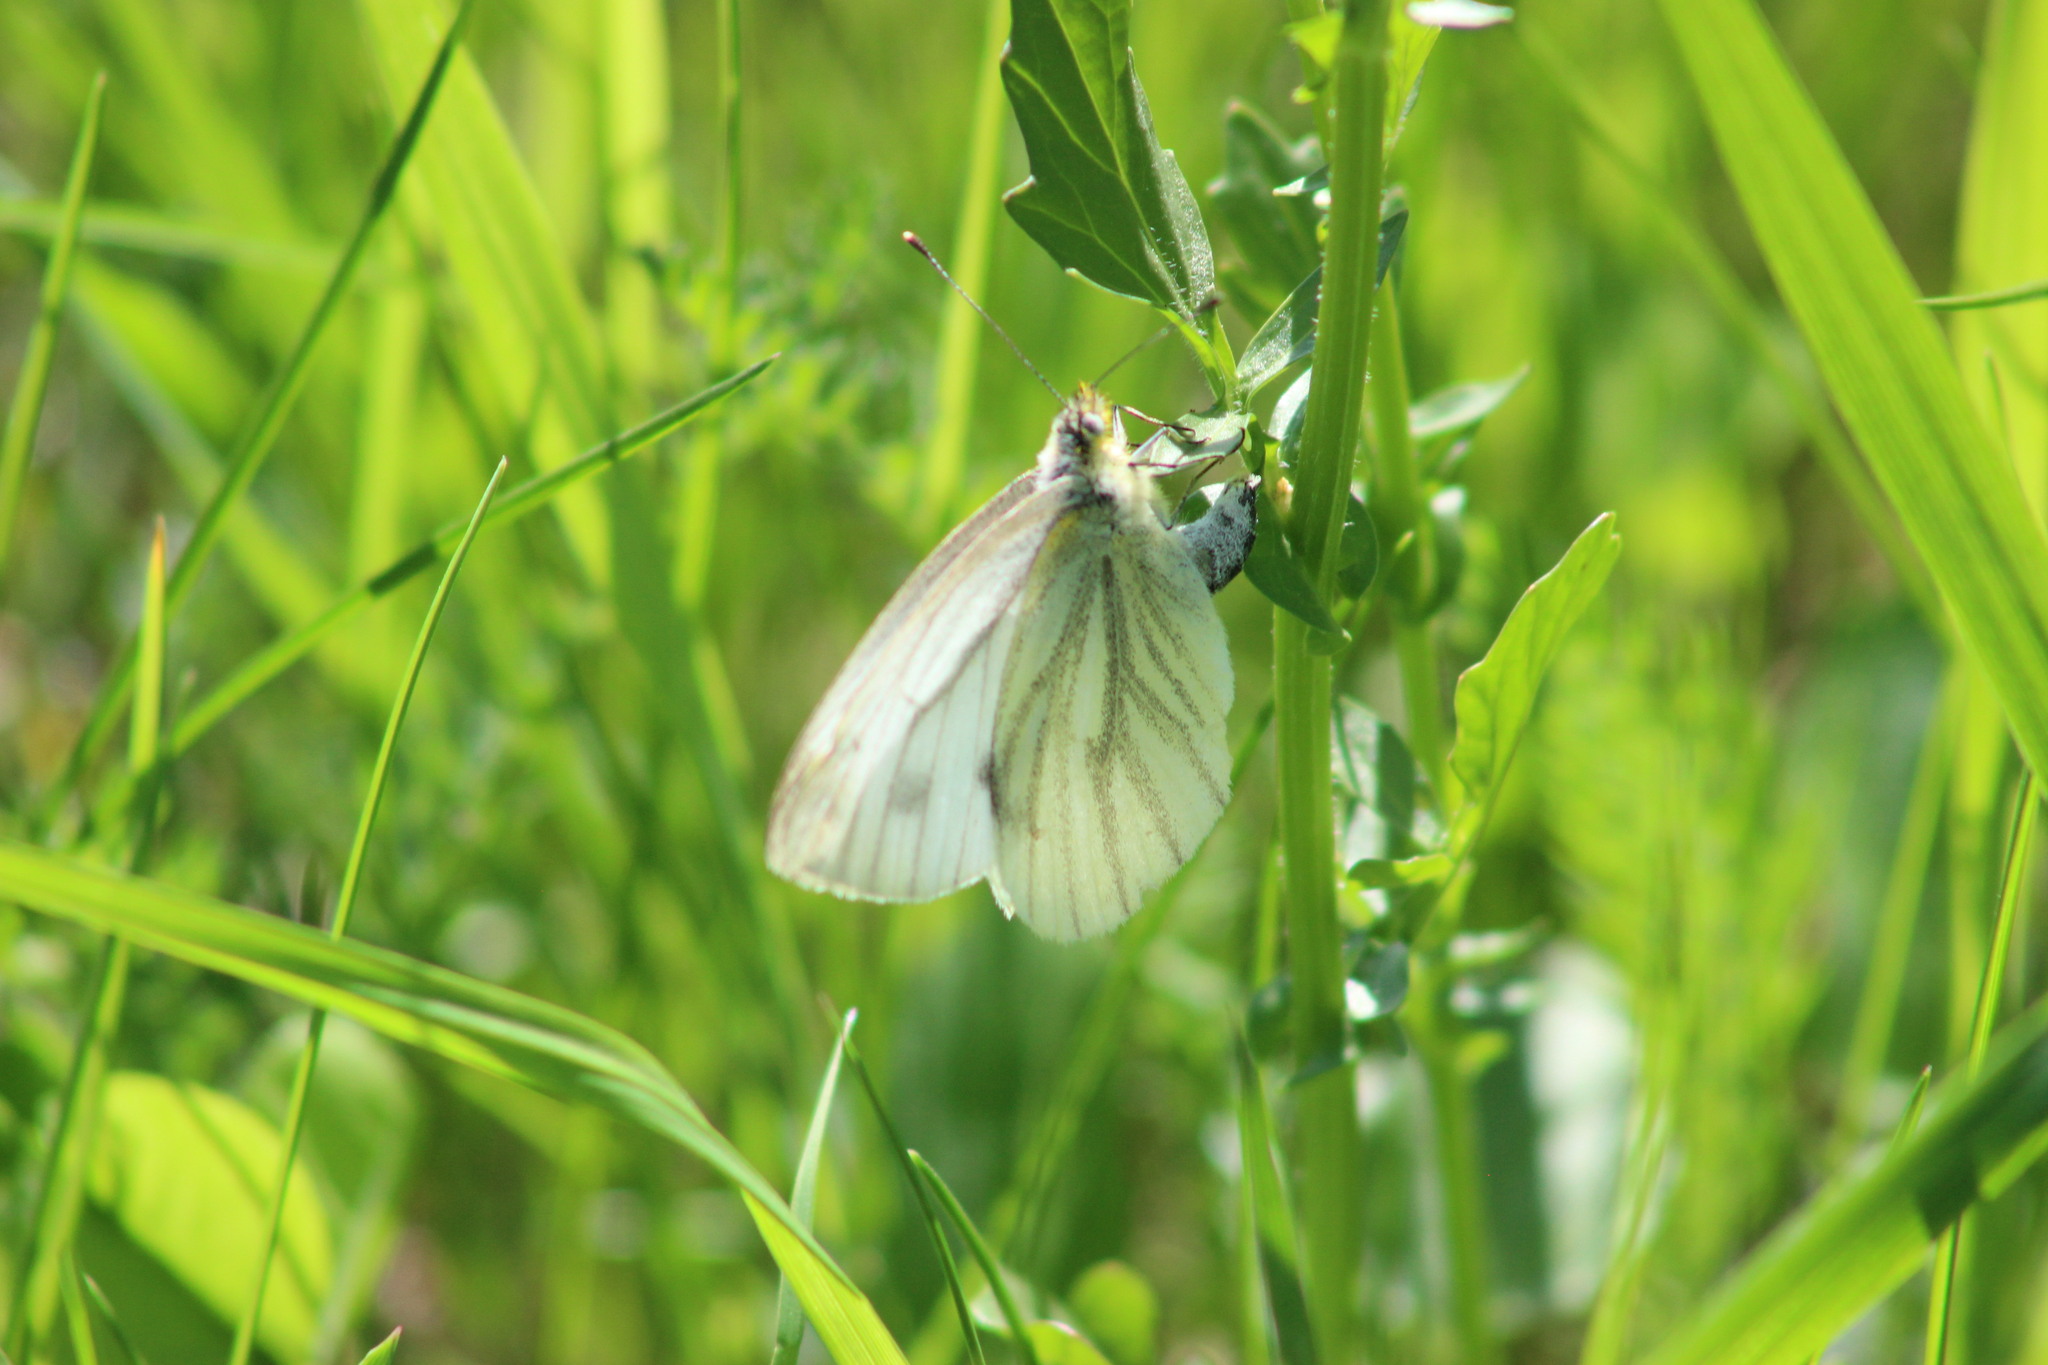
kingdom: Animalia
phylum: Arthropoda
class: Insecta
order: Lepidoptera
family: Pieridae
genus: Pieris
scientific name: Pieris napi
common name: Green-veined white
